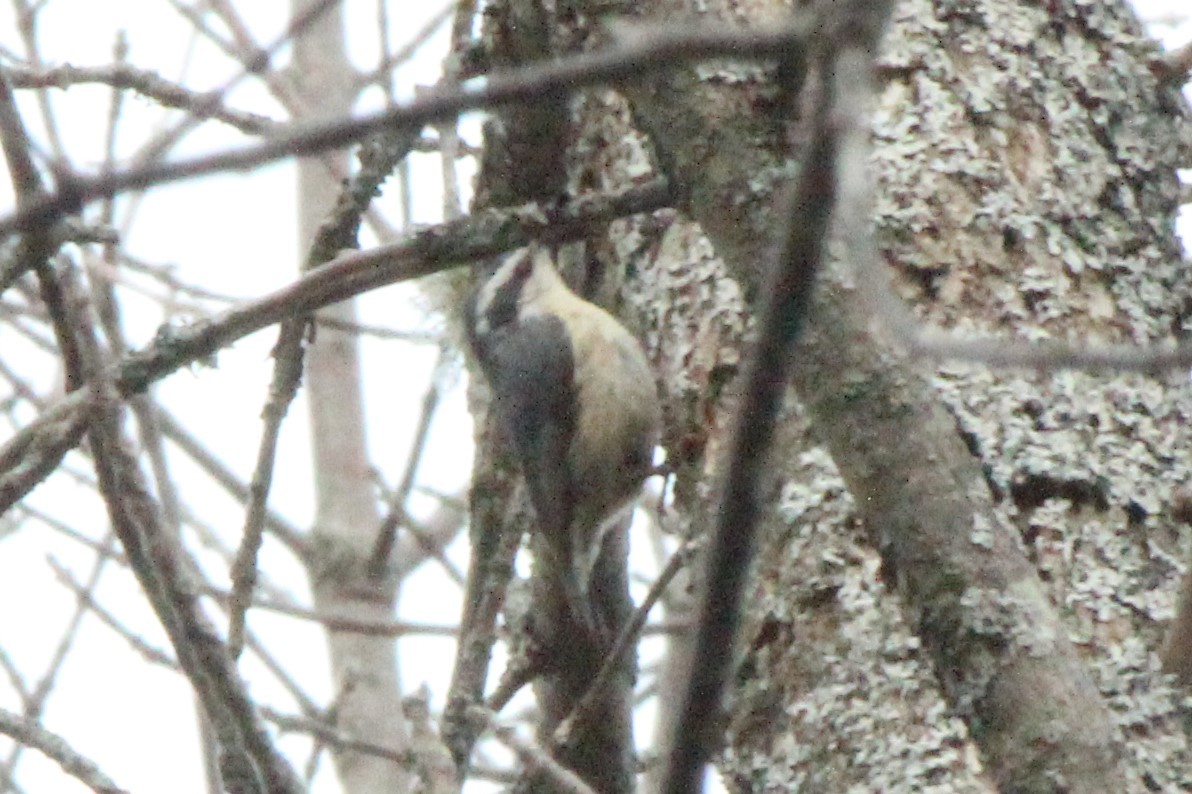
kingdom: Animalia
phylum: Chordata
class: Aves
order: Passeriformes
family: Sittidae
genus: Sitta
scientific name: Sitta canadensis
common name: Red-breasted nuthatch
